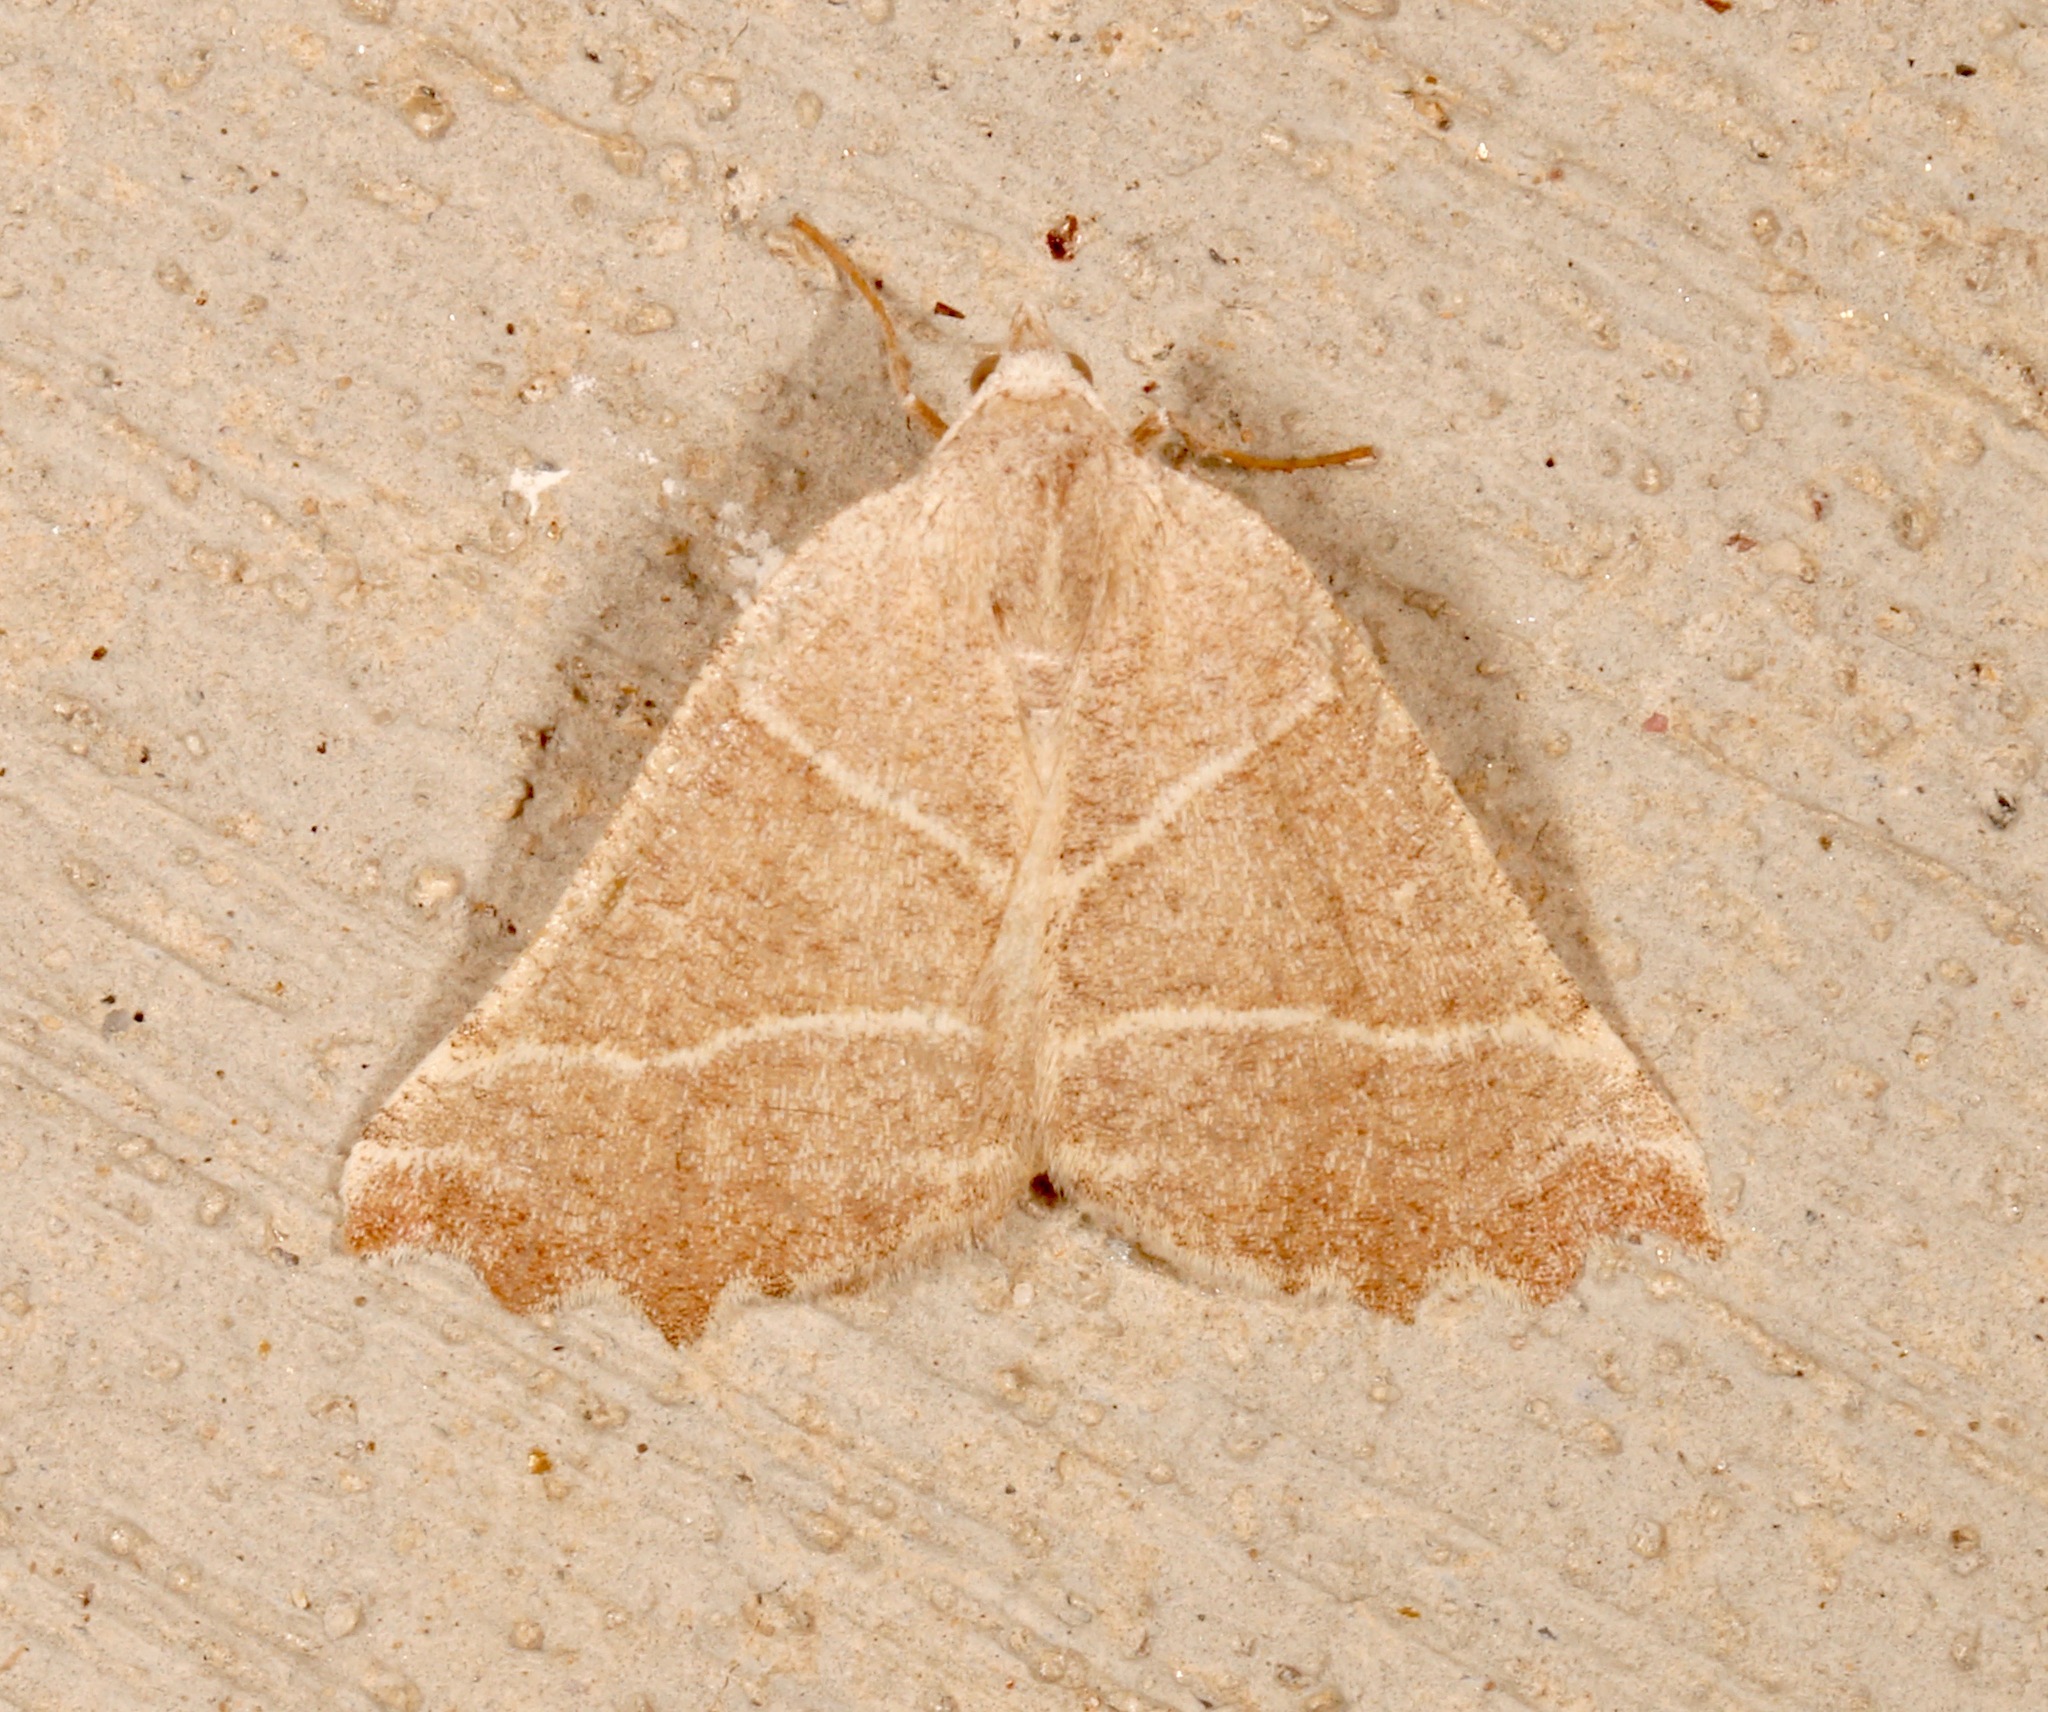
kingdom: Animalia
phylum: Arthropoda
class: Insecta
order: Lepidoptera
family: Geometridae
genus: Plataea
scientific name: Plataea calcaria
